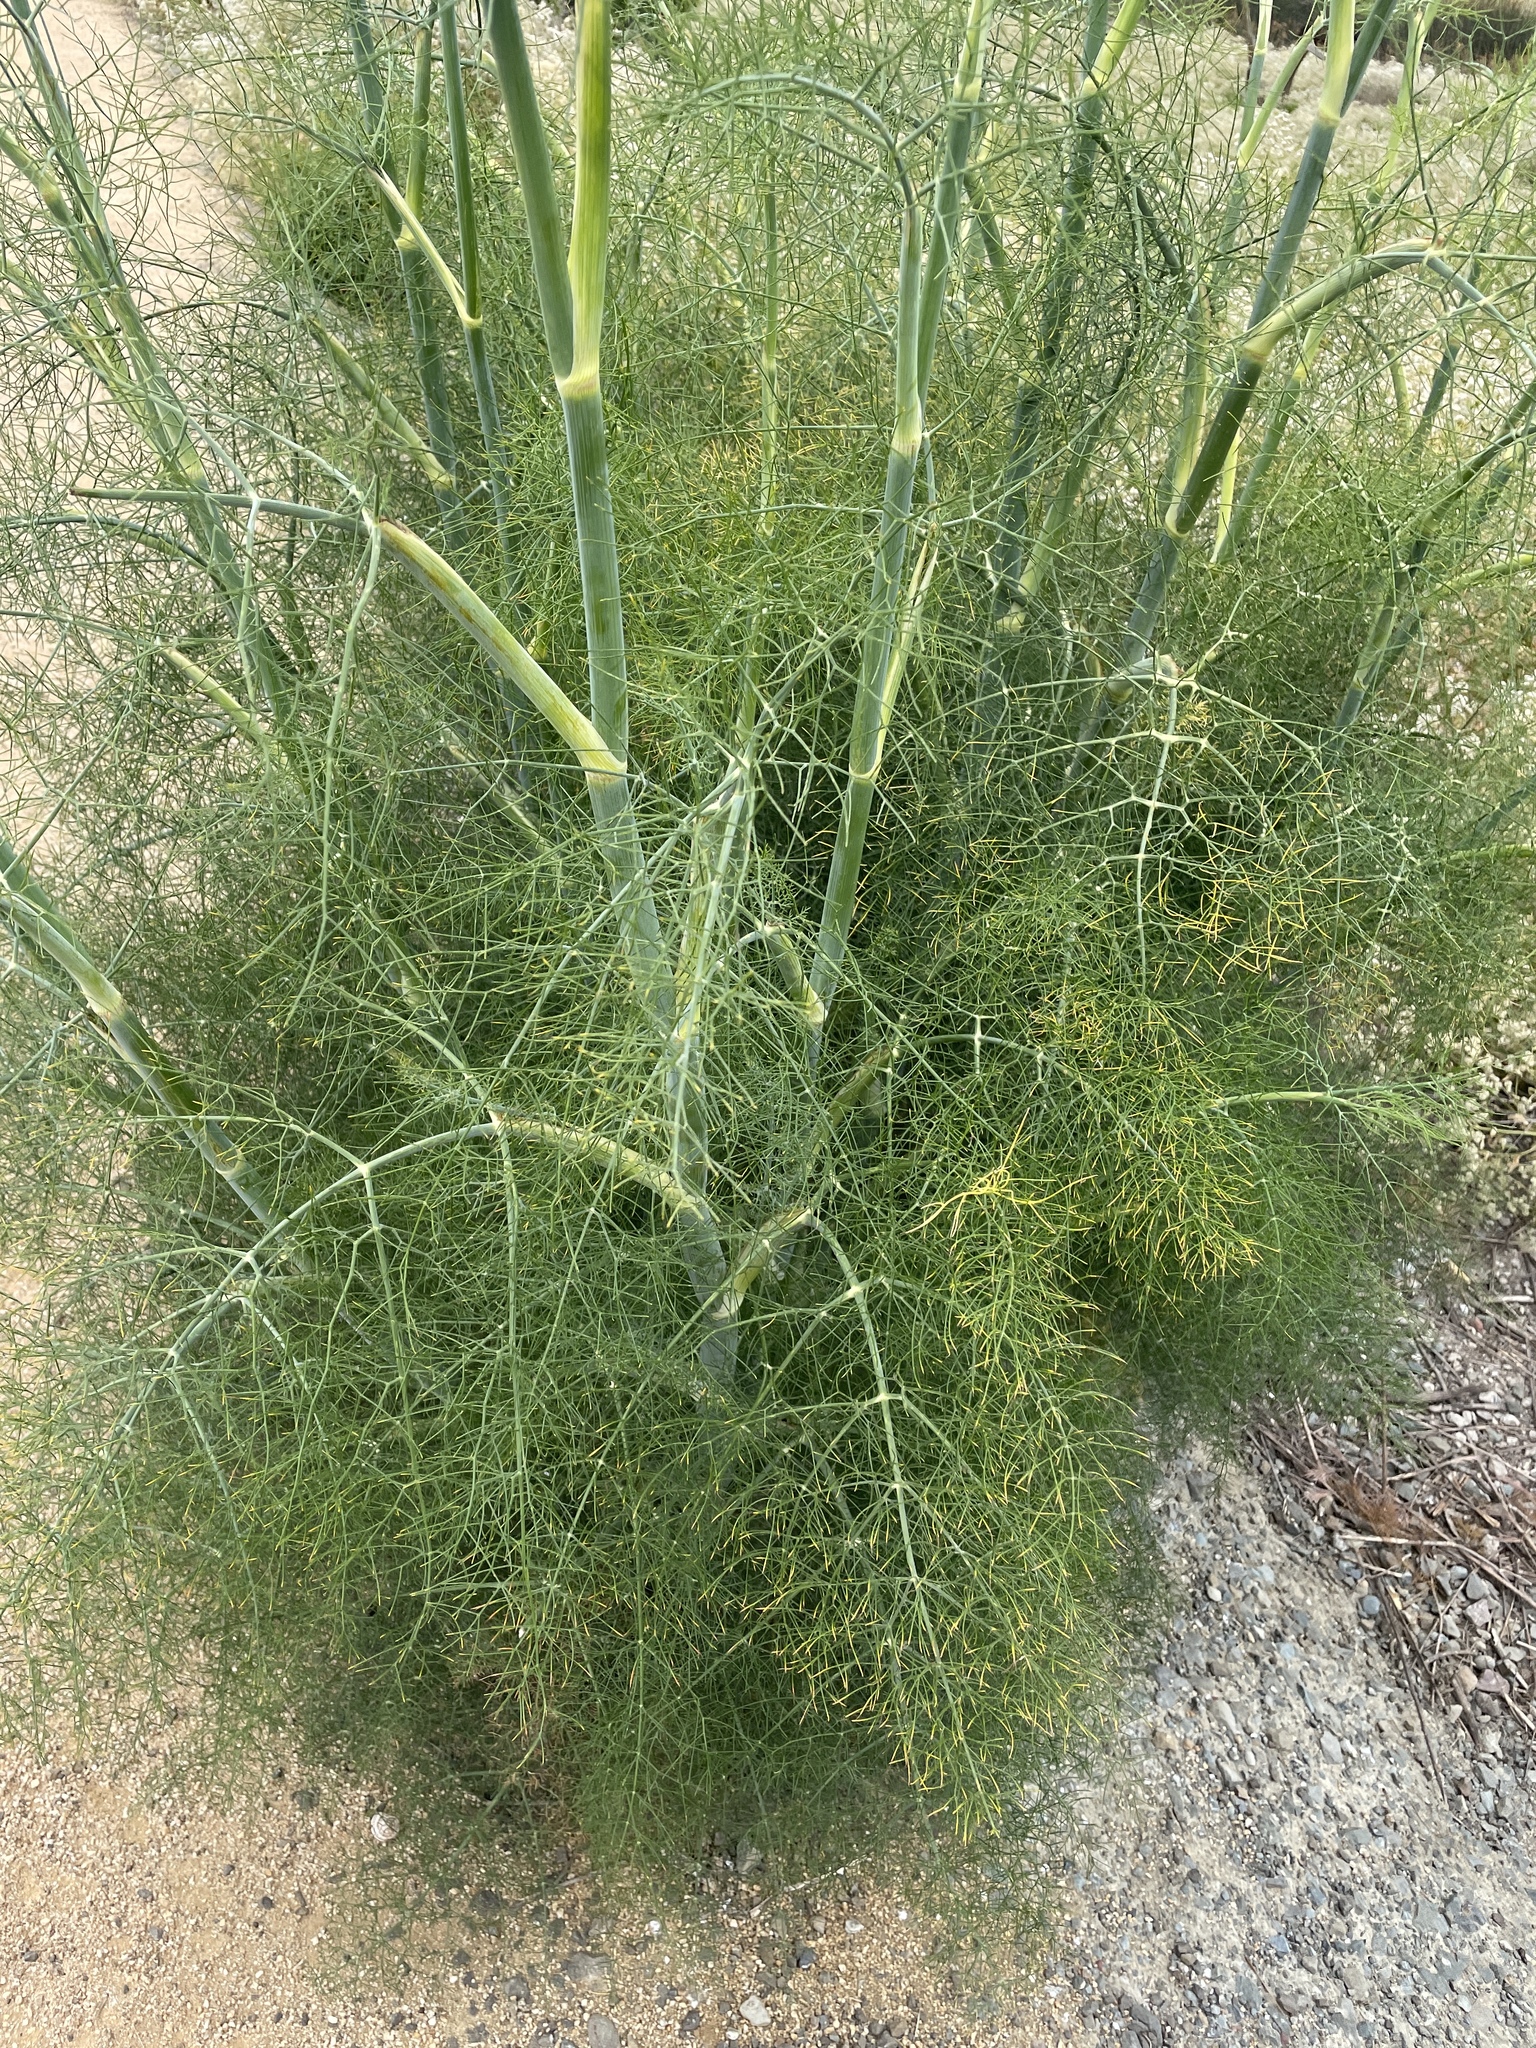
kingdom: Plantae
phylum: Tracheophyta
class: Magnoliopsida
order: Apiales
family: Apiaceae
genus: Foeniculum
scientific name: Foeniculum vulgare
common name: Fennel
